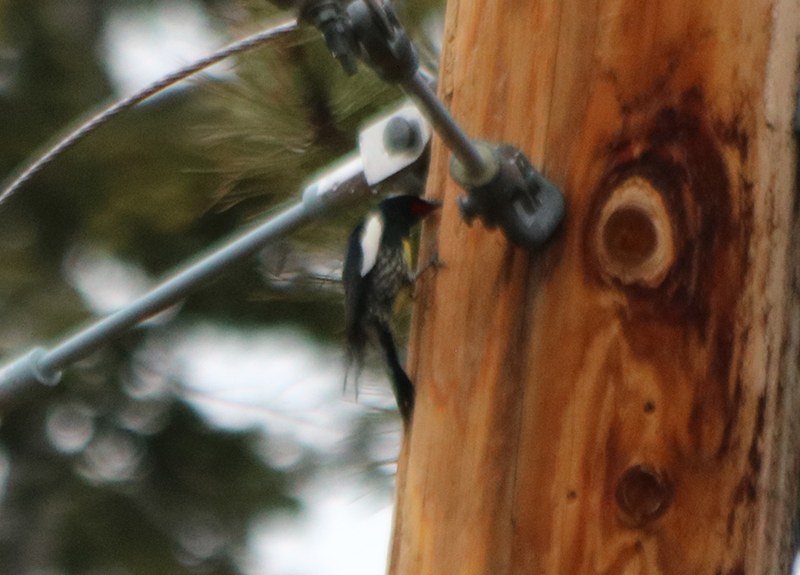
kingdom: Animalia
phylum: Chordata
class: Aves
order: Piciformes
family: Picidae
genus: Sphyrapicus
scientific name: Sphyrapicus thyroideus
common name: Williamson's sapsucker
